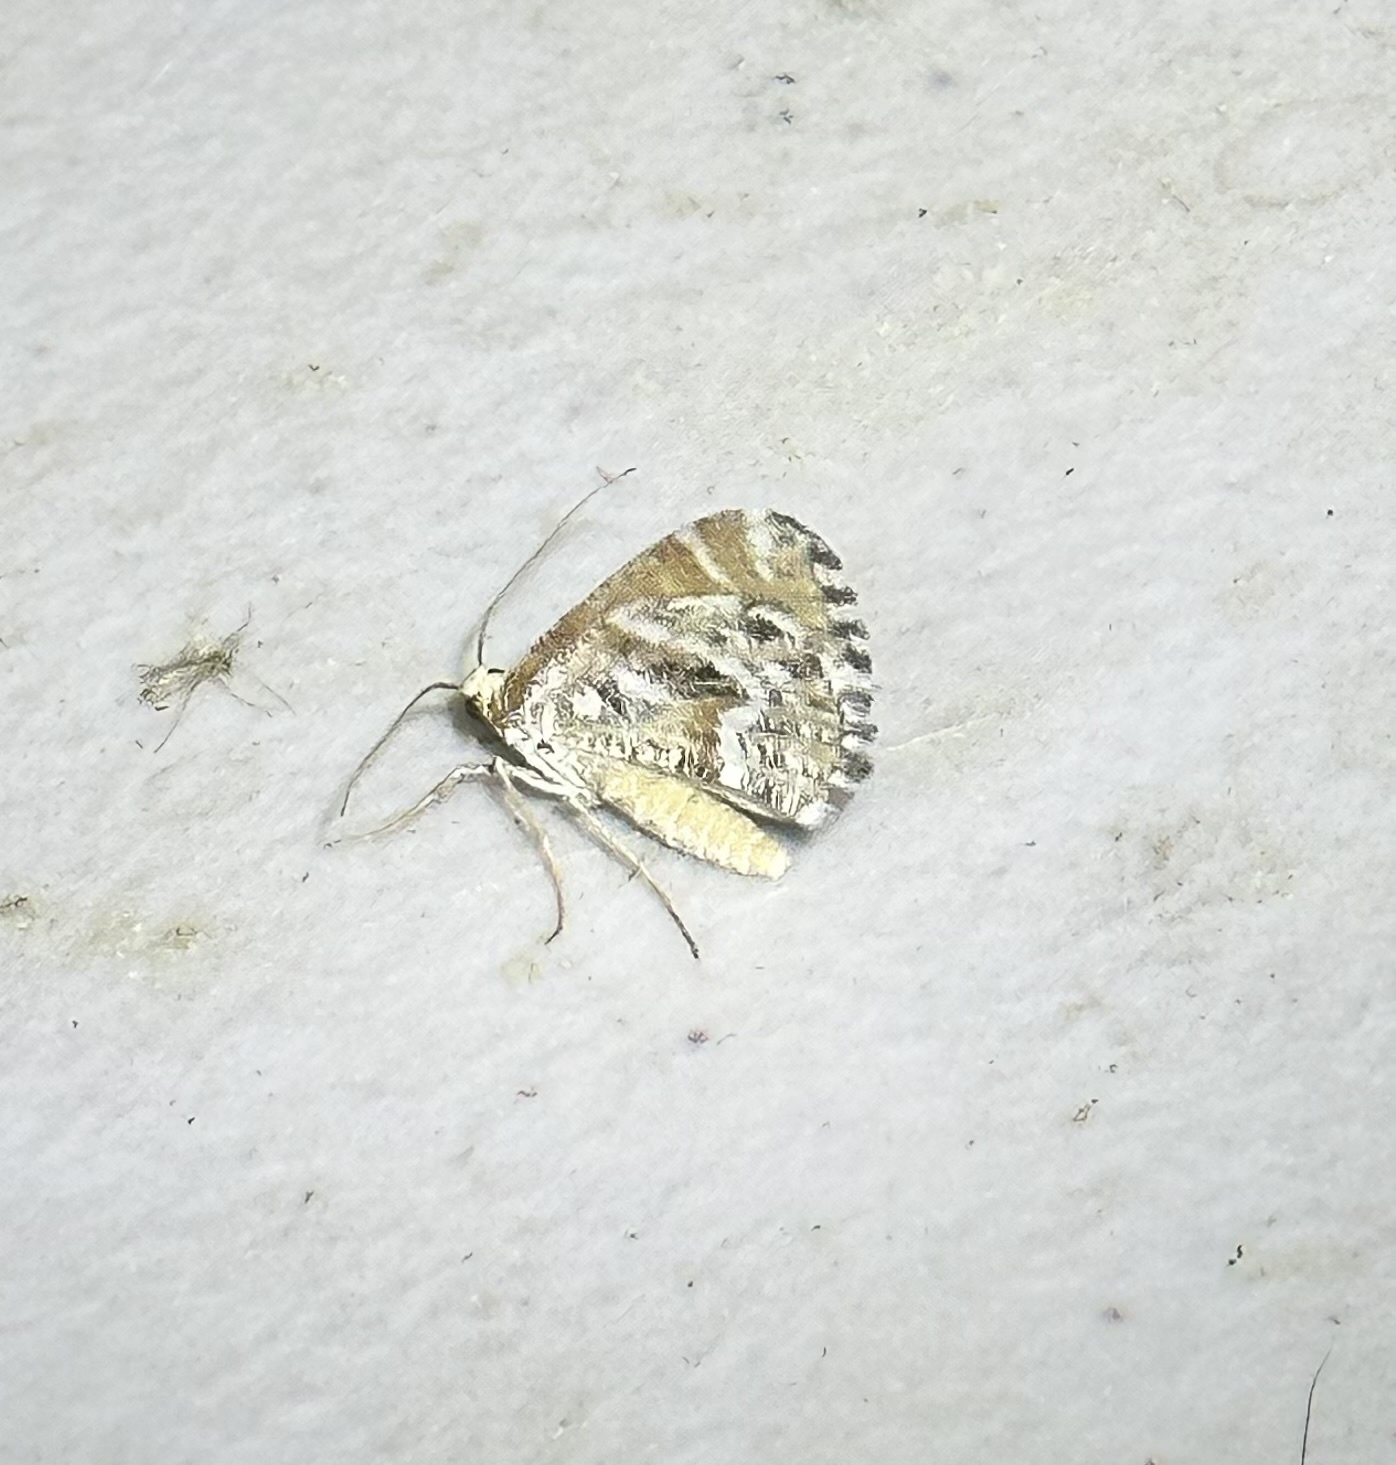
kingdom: Animalia
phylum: Arthropoda
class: Insecta
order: Lepidoptera
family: Geometridae
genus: Stamnodes
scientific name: Stamnodes marmorata
